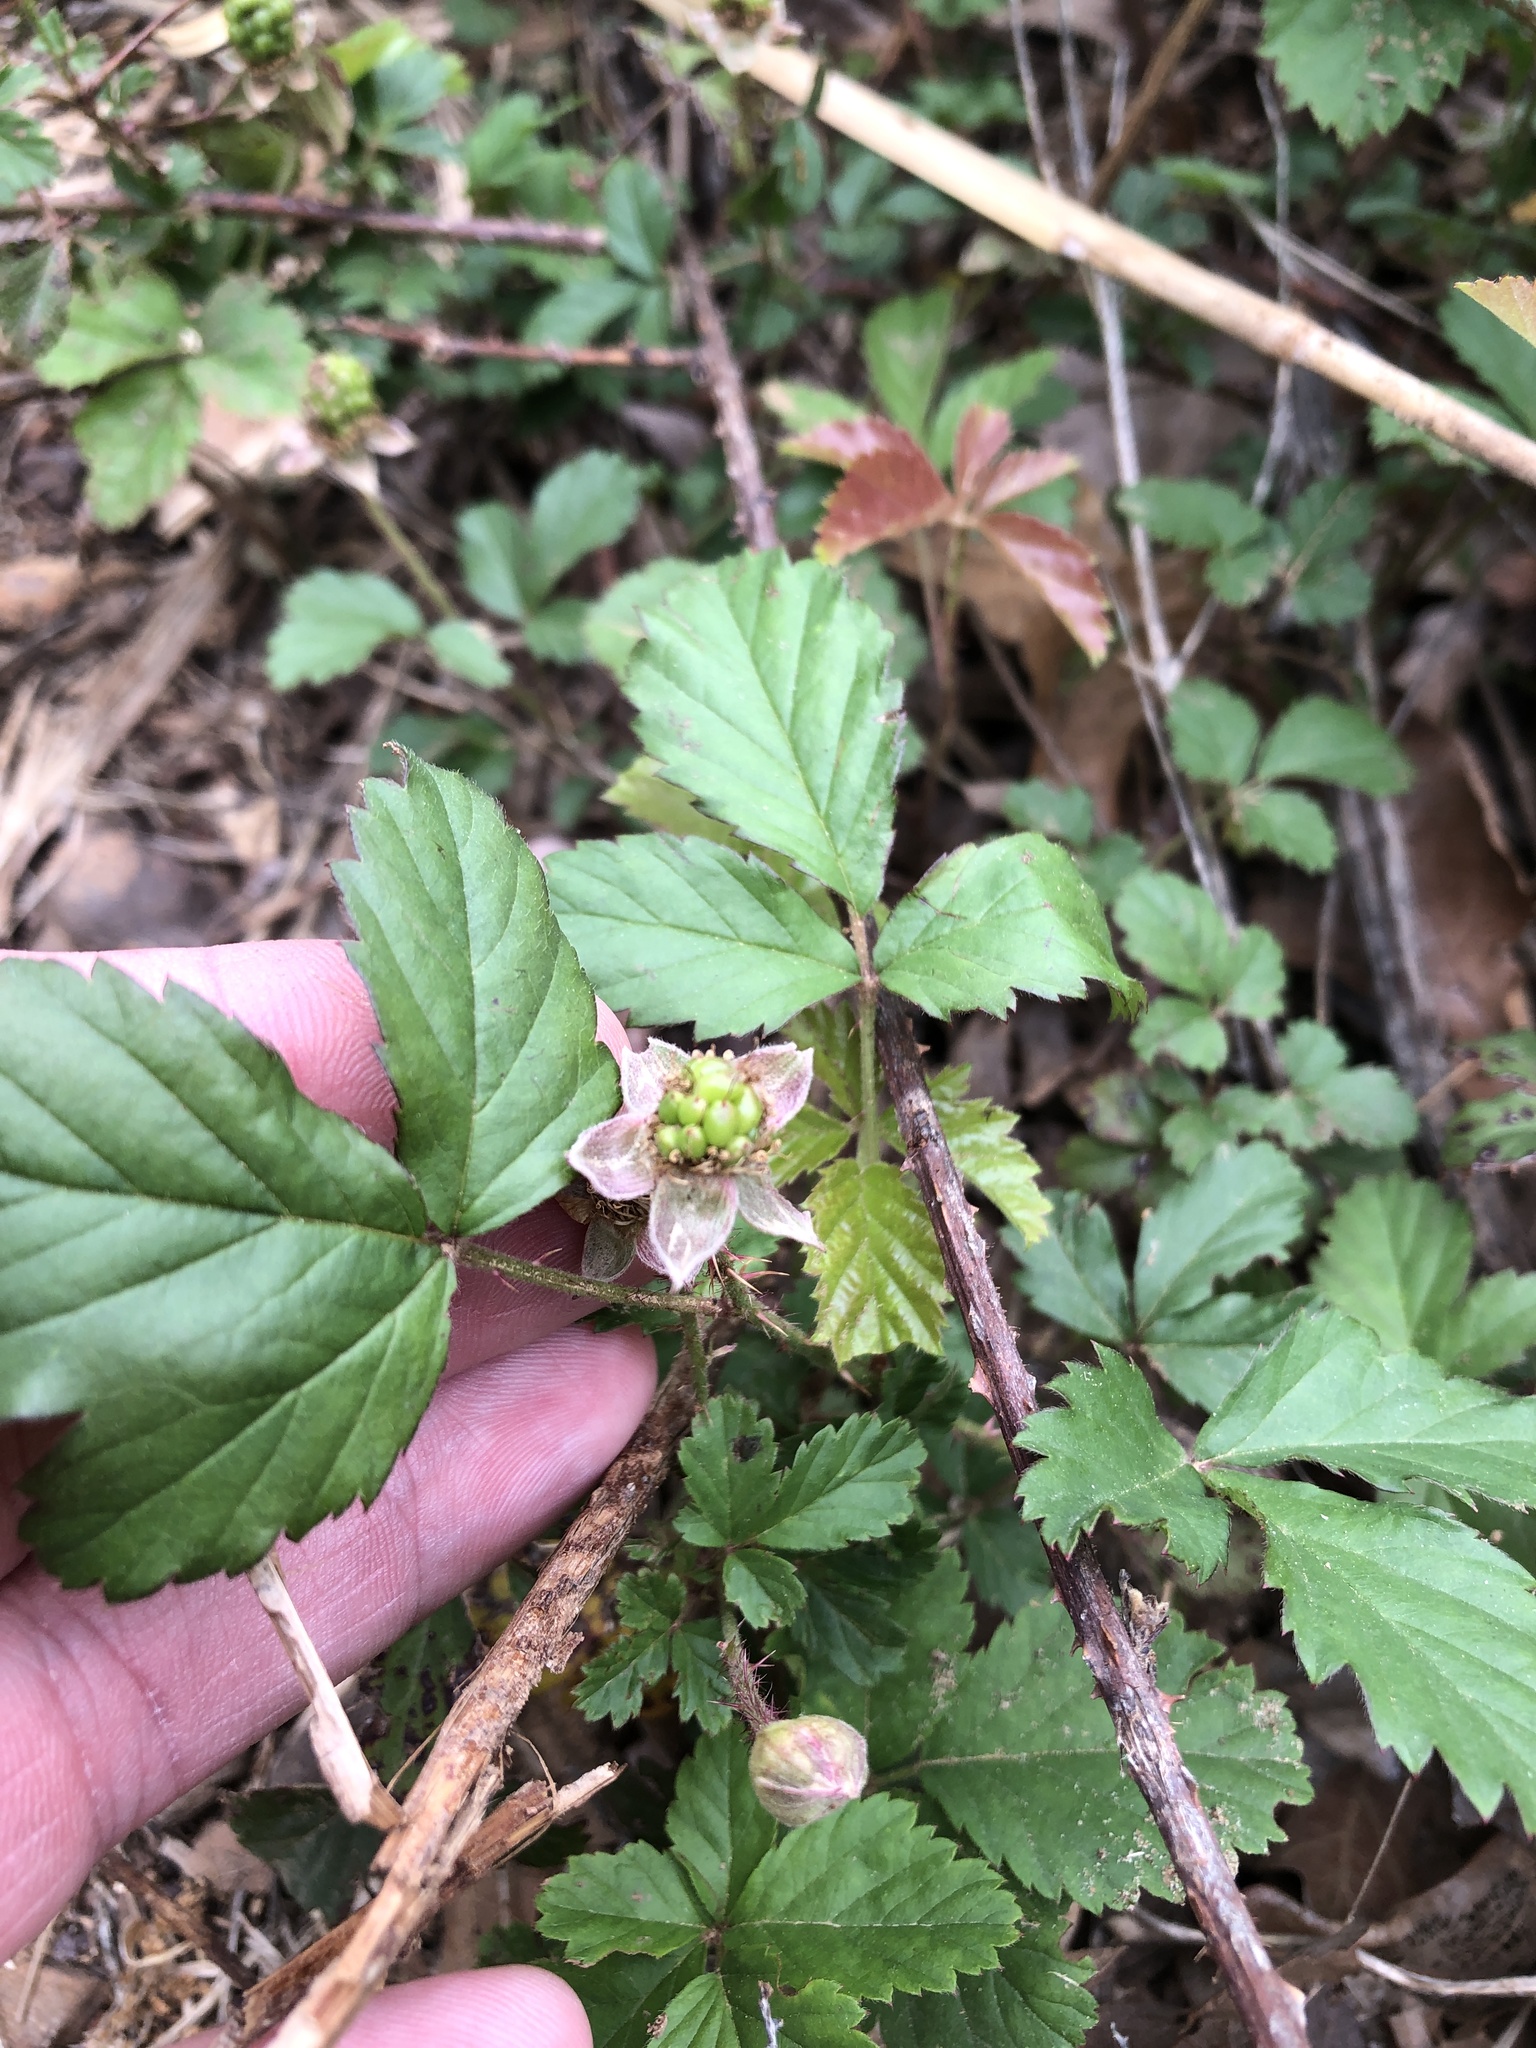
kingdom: Plantae
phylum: Tracheophyta
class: Magnoliopsida
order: Rosales
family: Rosaceae
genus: Rubus
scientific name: Rubus trivialis
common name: Southern dewberry
